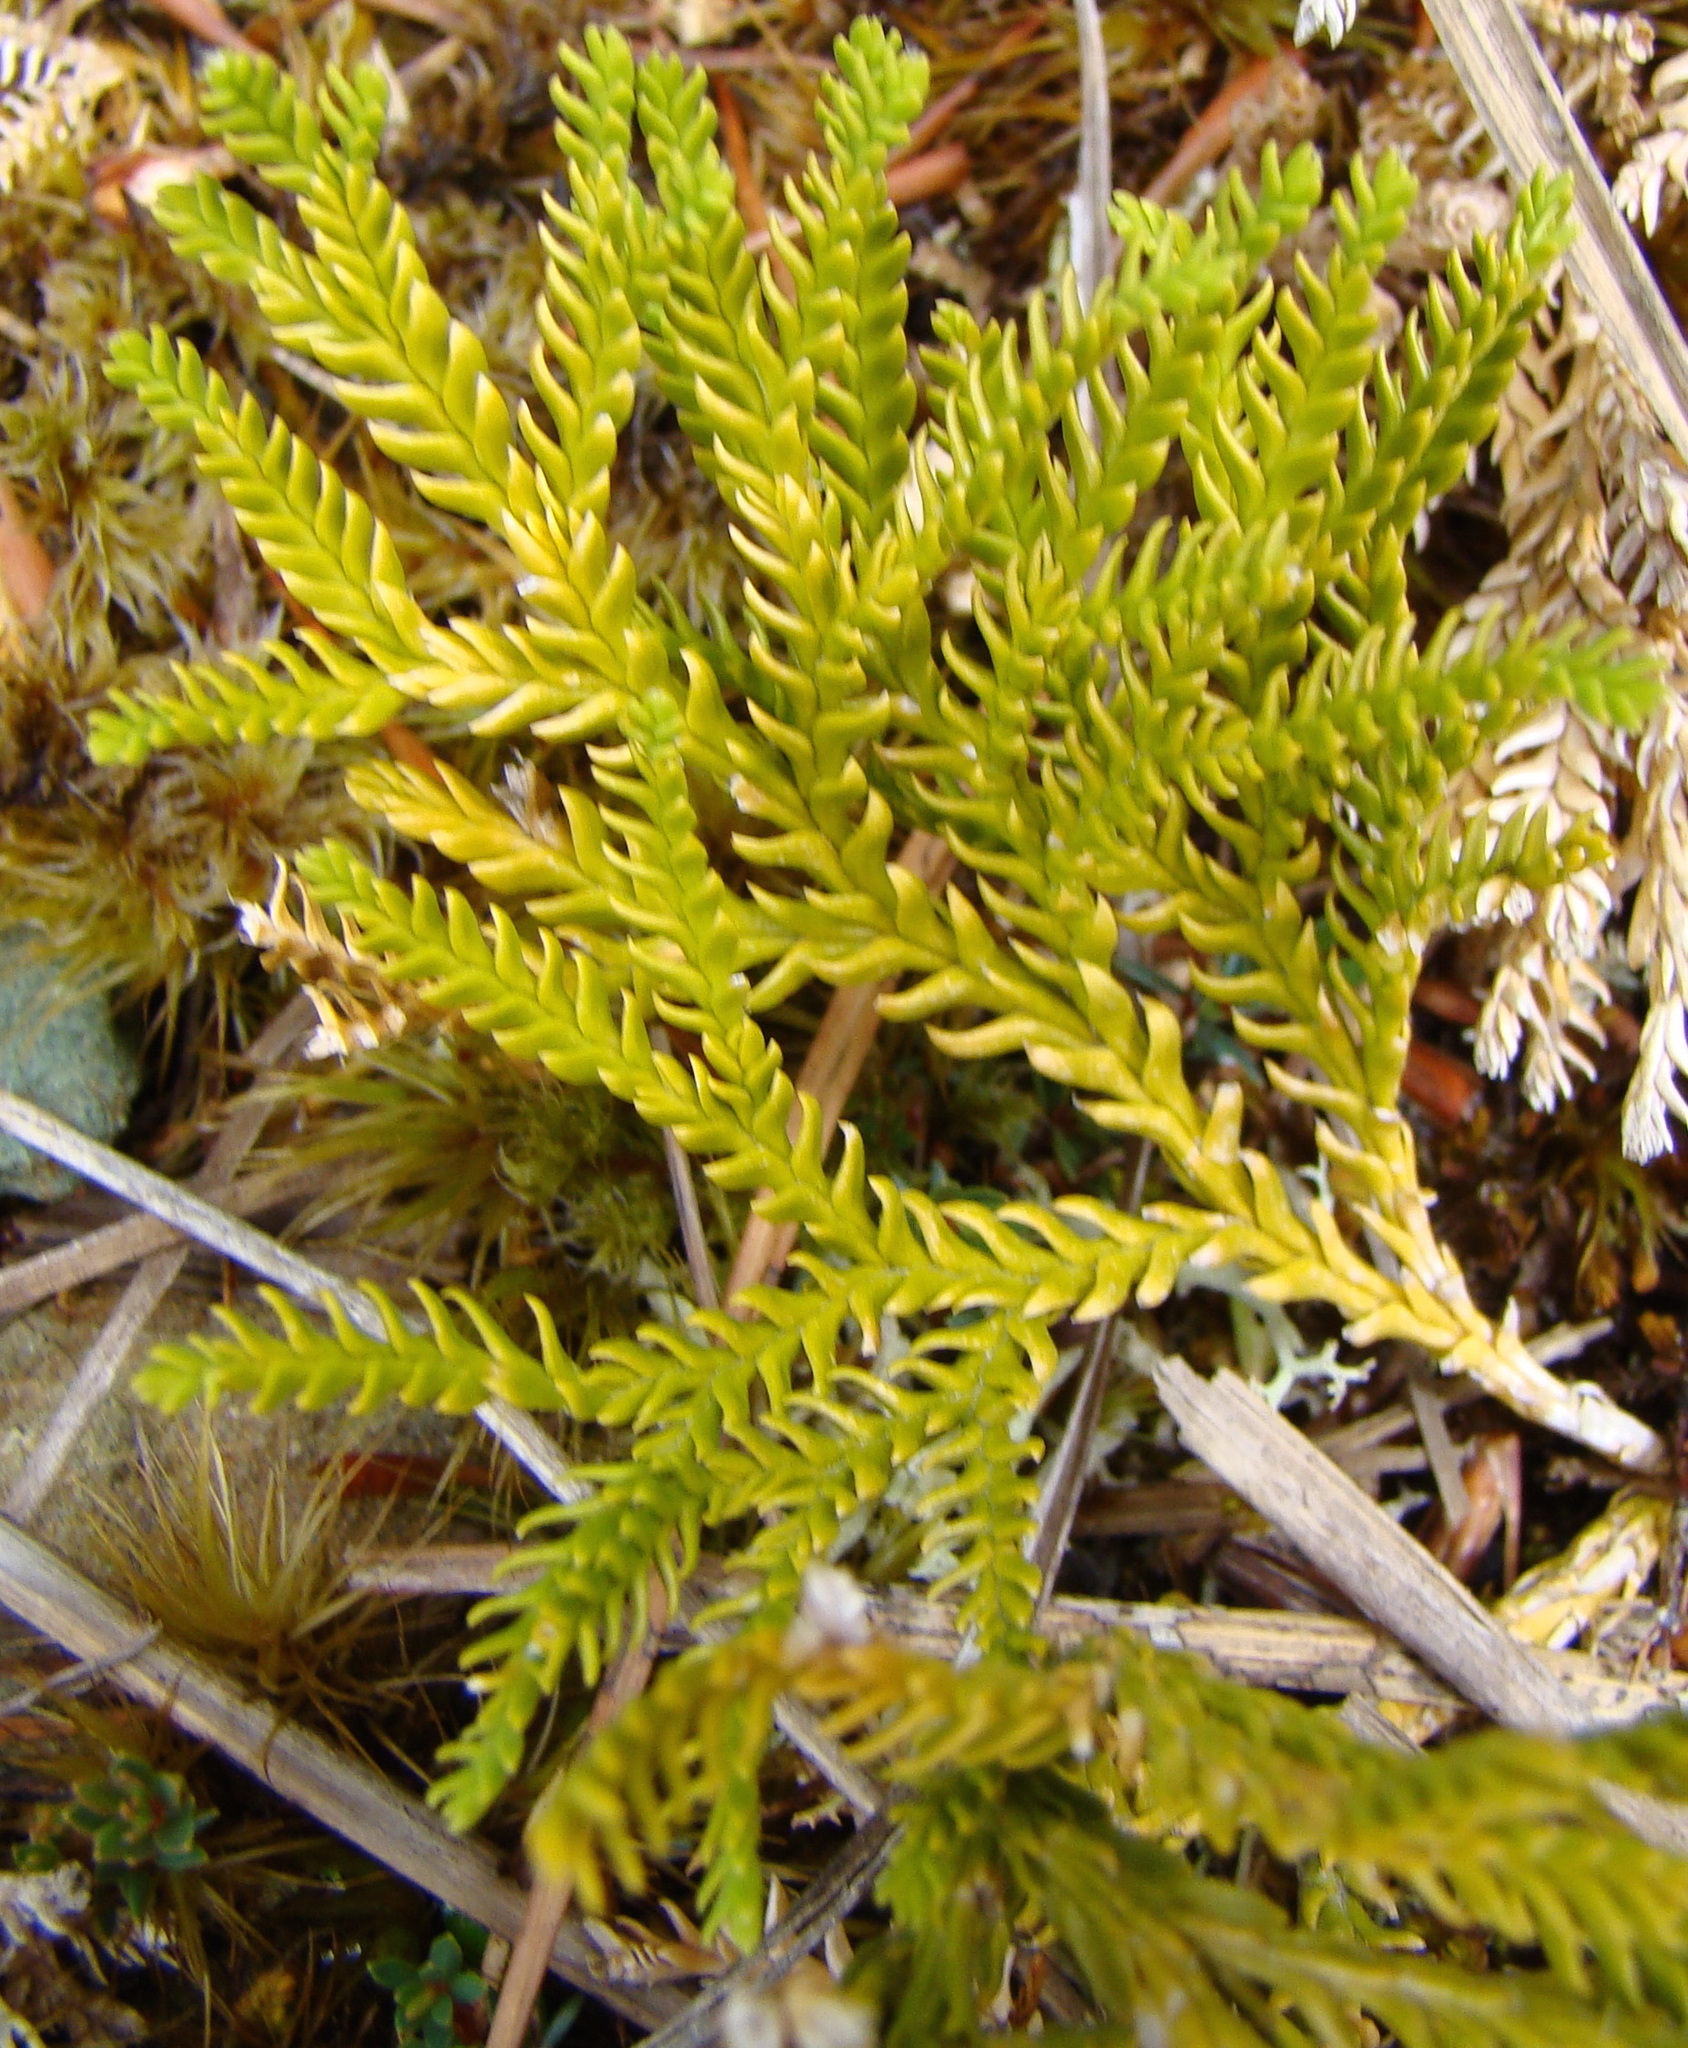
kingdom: Plantae
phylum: Tracheophyta
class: Lycopodiopsida
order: Lycopodiales
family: Lycopodiaceae
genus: Diphasium
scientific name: Diphasium scariosum
